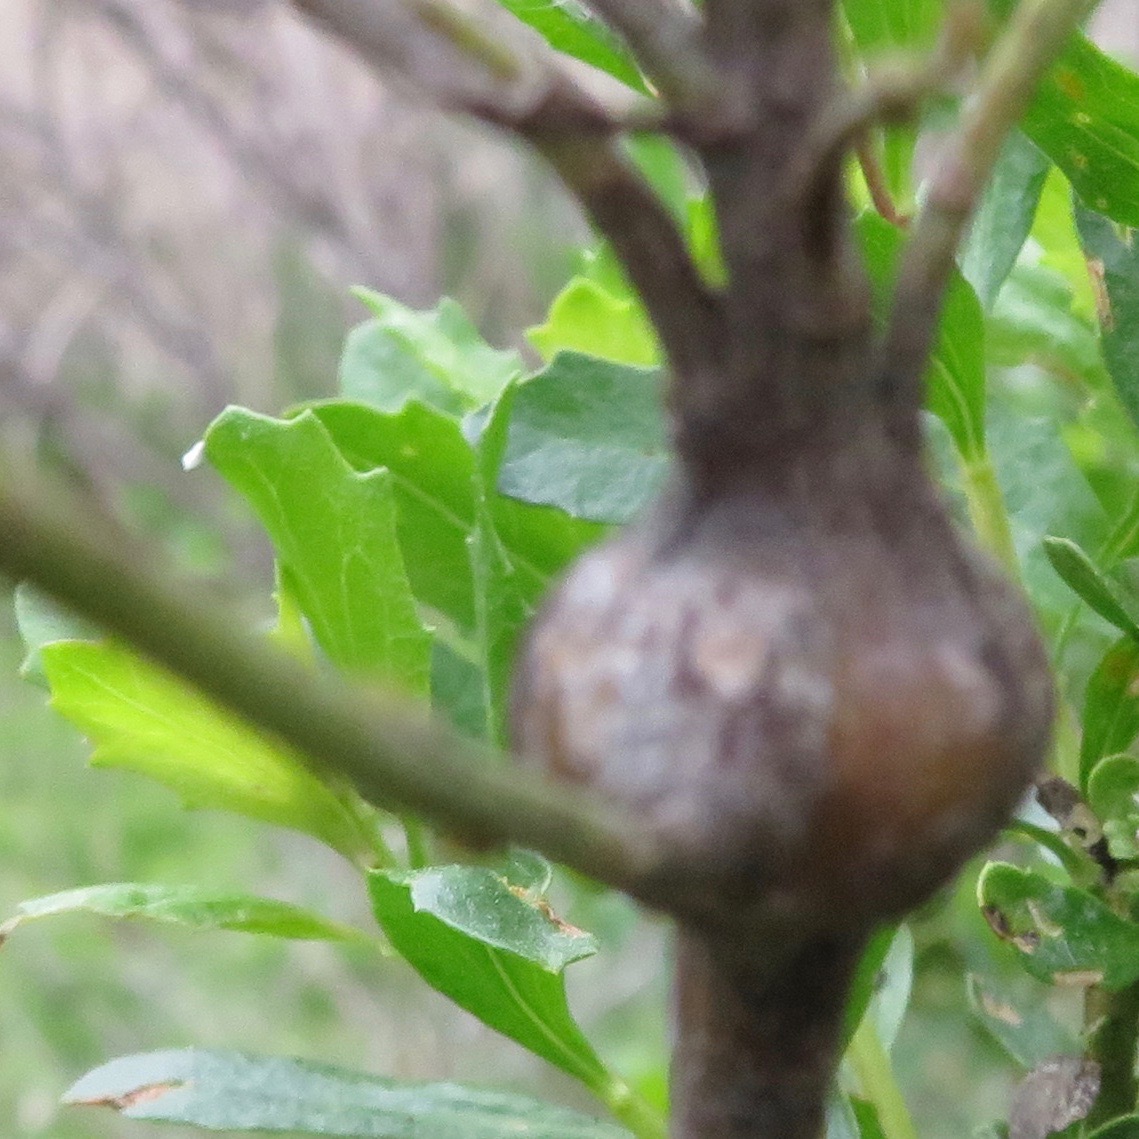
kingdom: Animalia
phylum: Arthropoda
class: Insecta
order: Lepidoptera
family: Gelechiidae
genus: Gnorimoschema
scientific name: Gnorimoschema baccharisella
